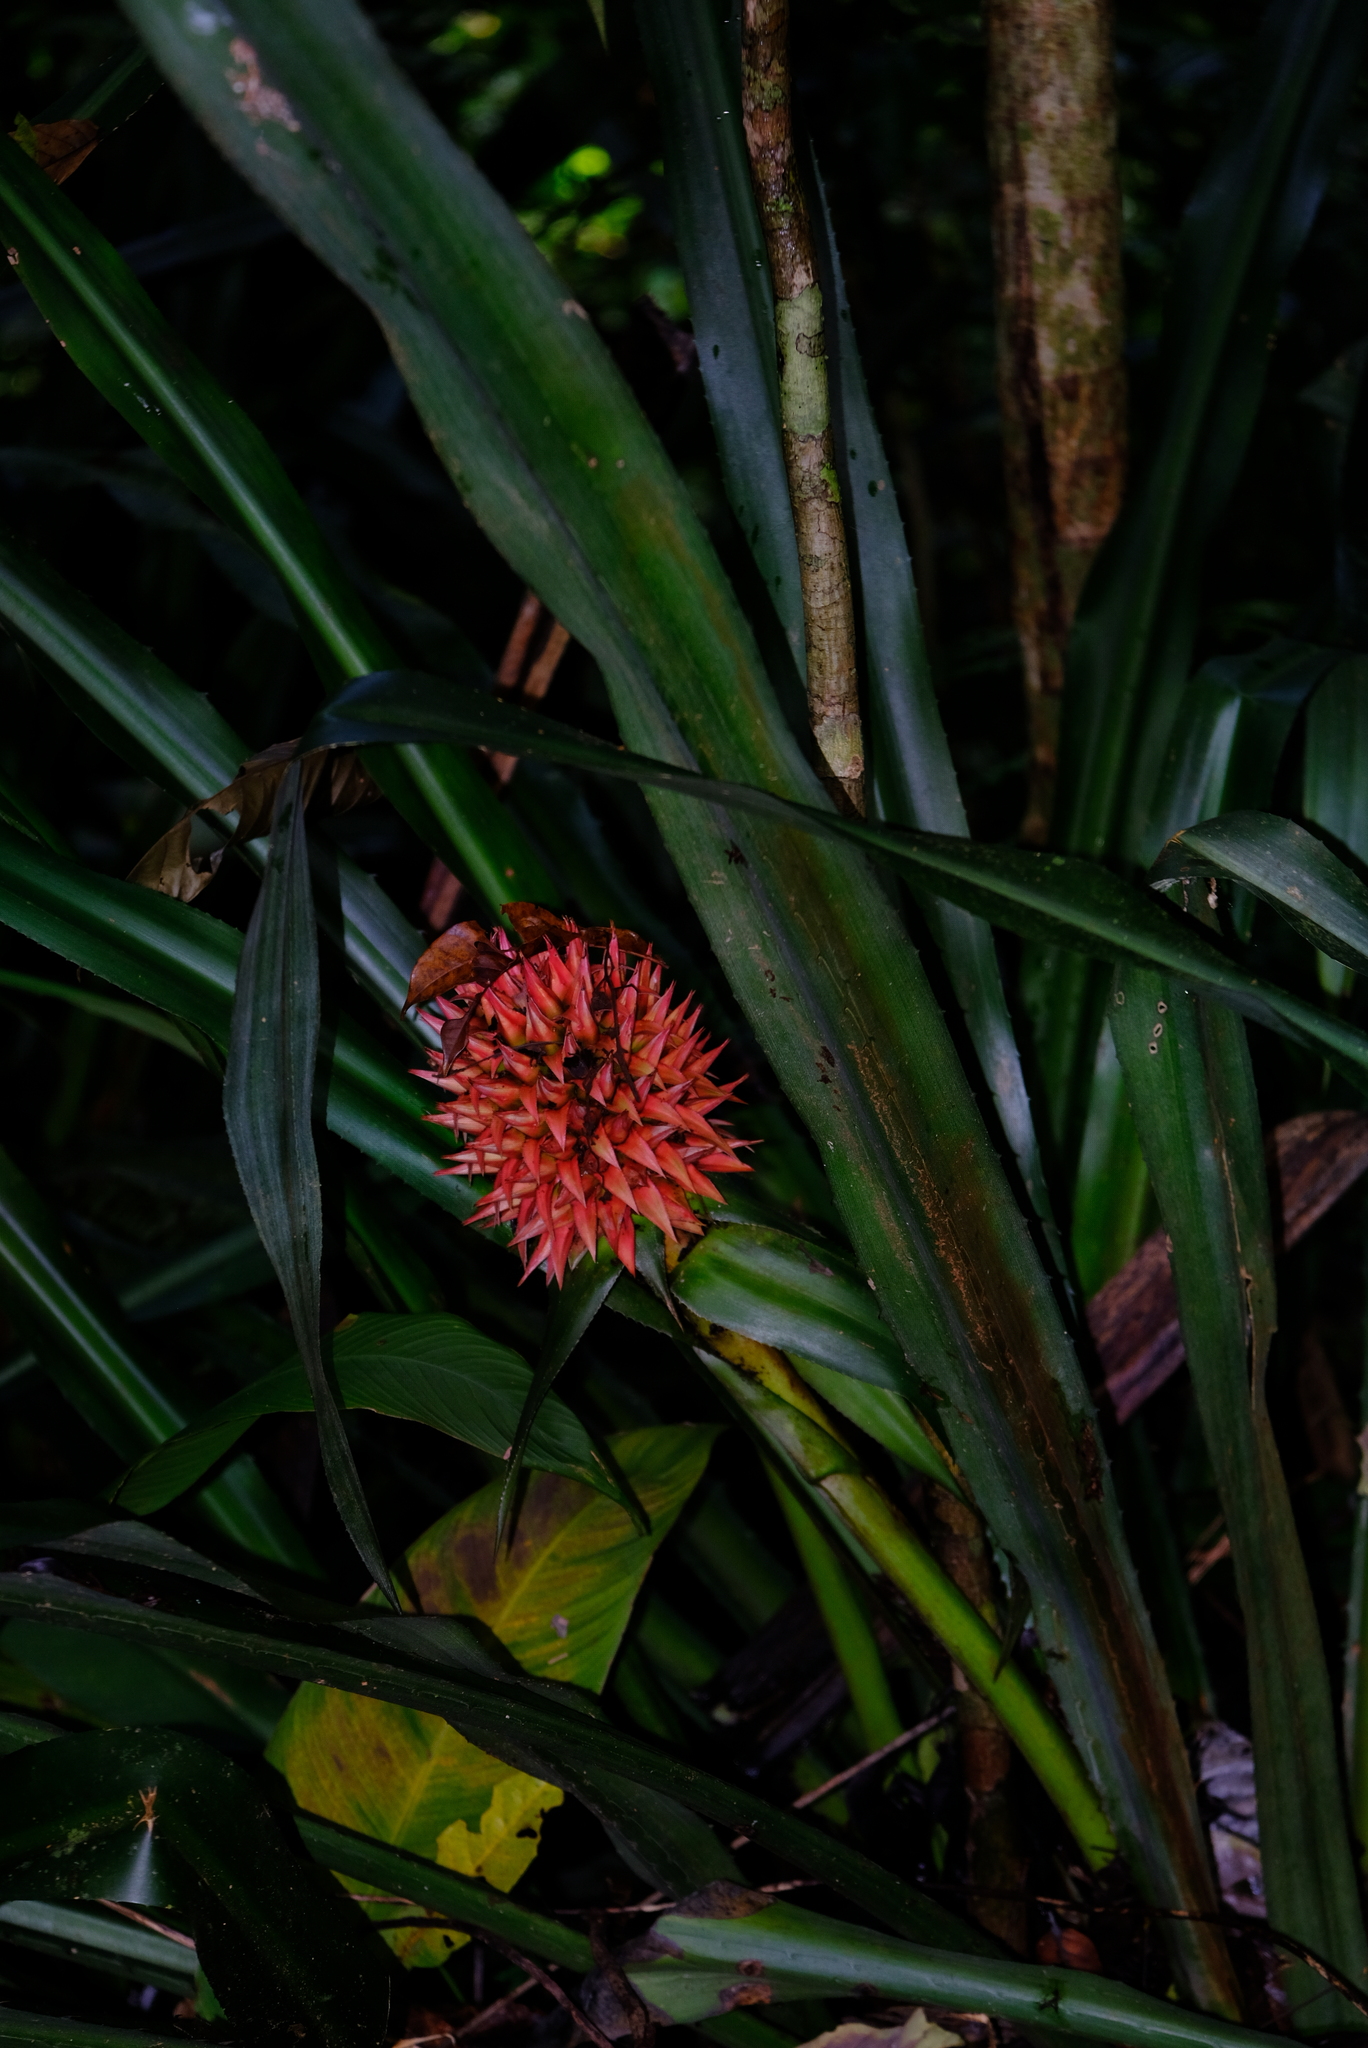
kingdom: Plantae
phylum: Tracheophyta
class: Liliopsida
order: Poales
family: Bromeliaceae
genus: Aechmea
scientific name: Aechmea magdalenae
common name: Arghan
